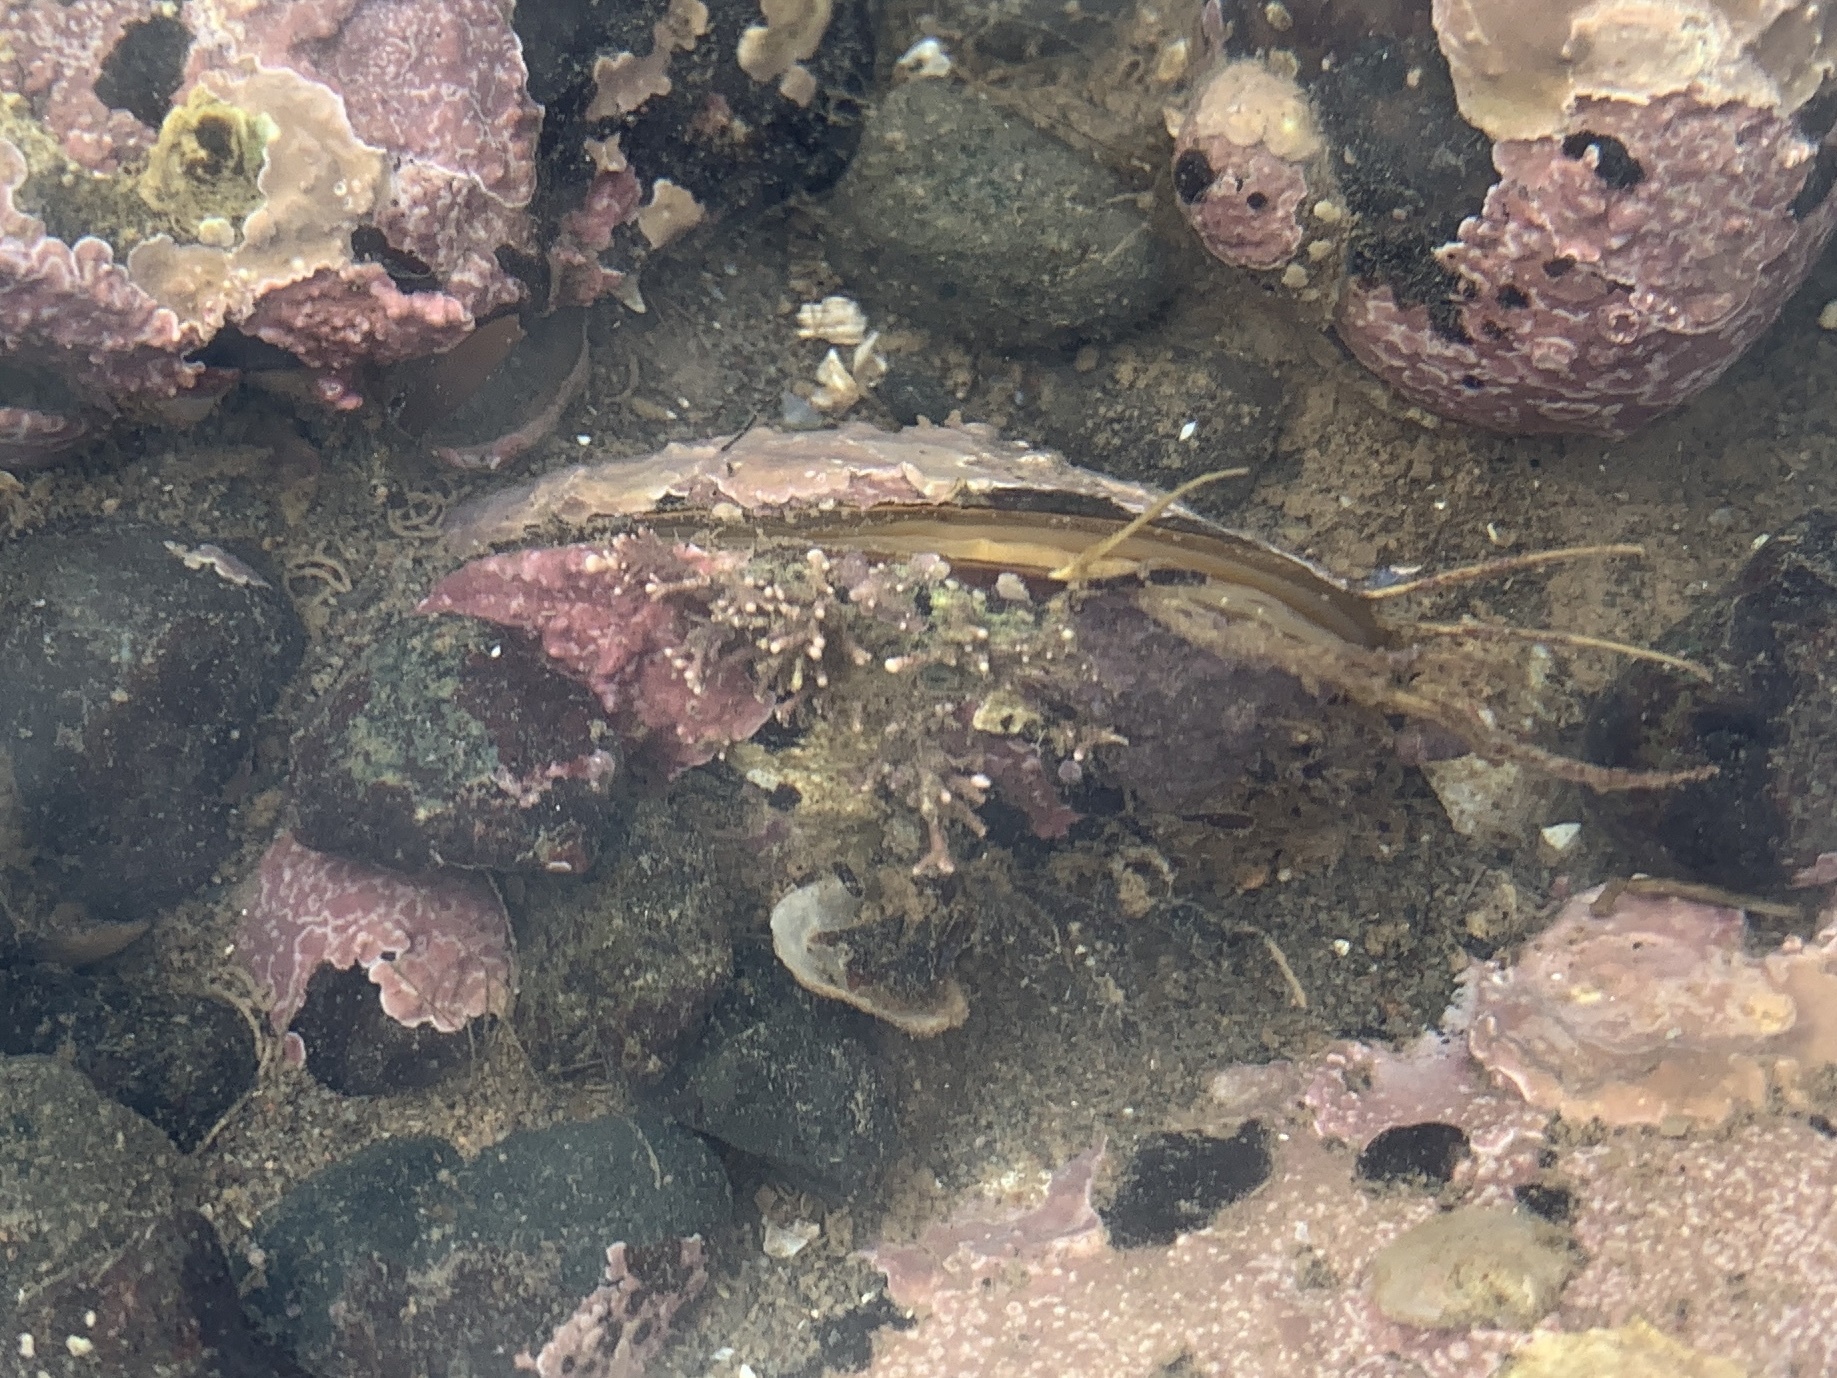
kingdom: Animalia
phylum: Mollusca
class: Bivalvia
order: Mytilida
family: Mytilidae
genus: Modiolus
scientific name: Modiolus modiolus
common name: Horse-mussel
